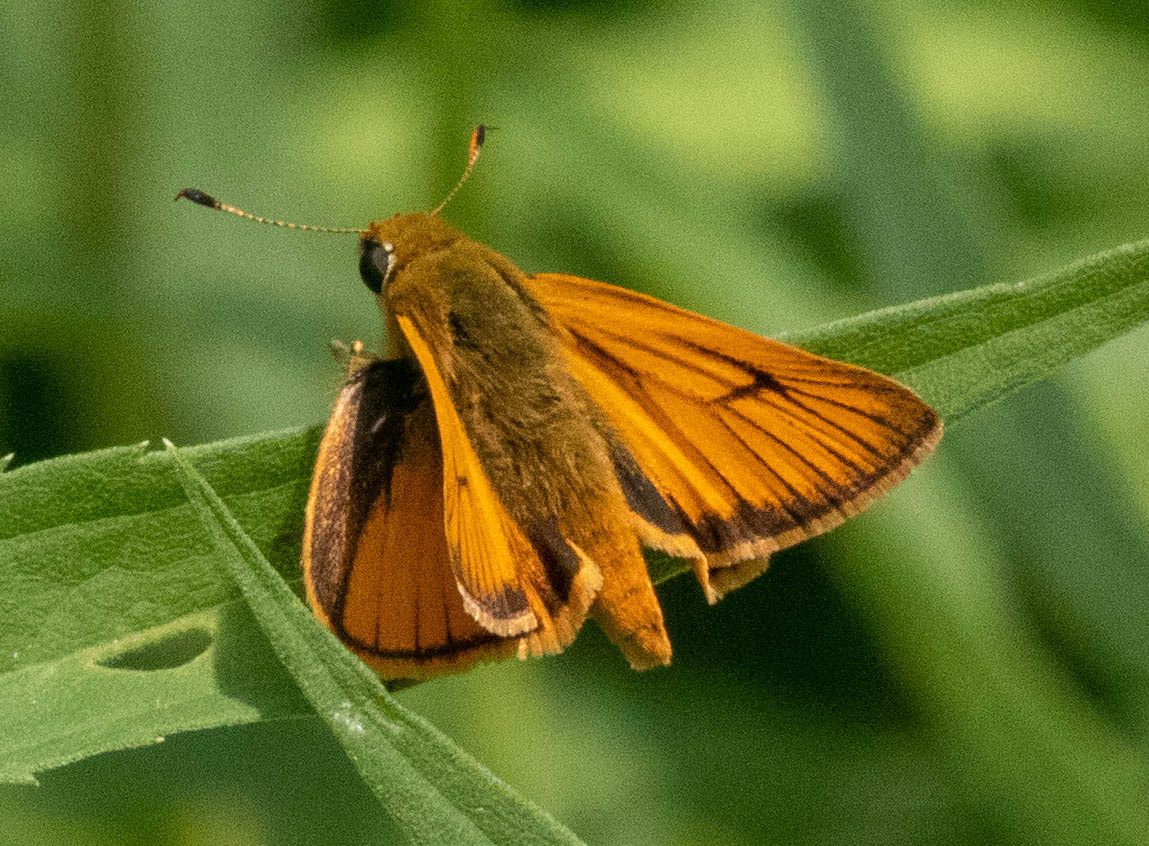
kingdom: Animalia
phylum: Arthropoda
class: Insecta
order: Lepidoptera
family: Hesperiidae
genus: Atrytone
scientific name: Atrytone delaware
